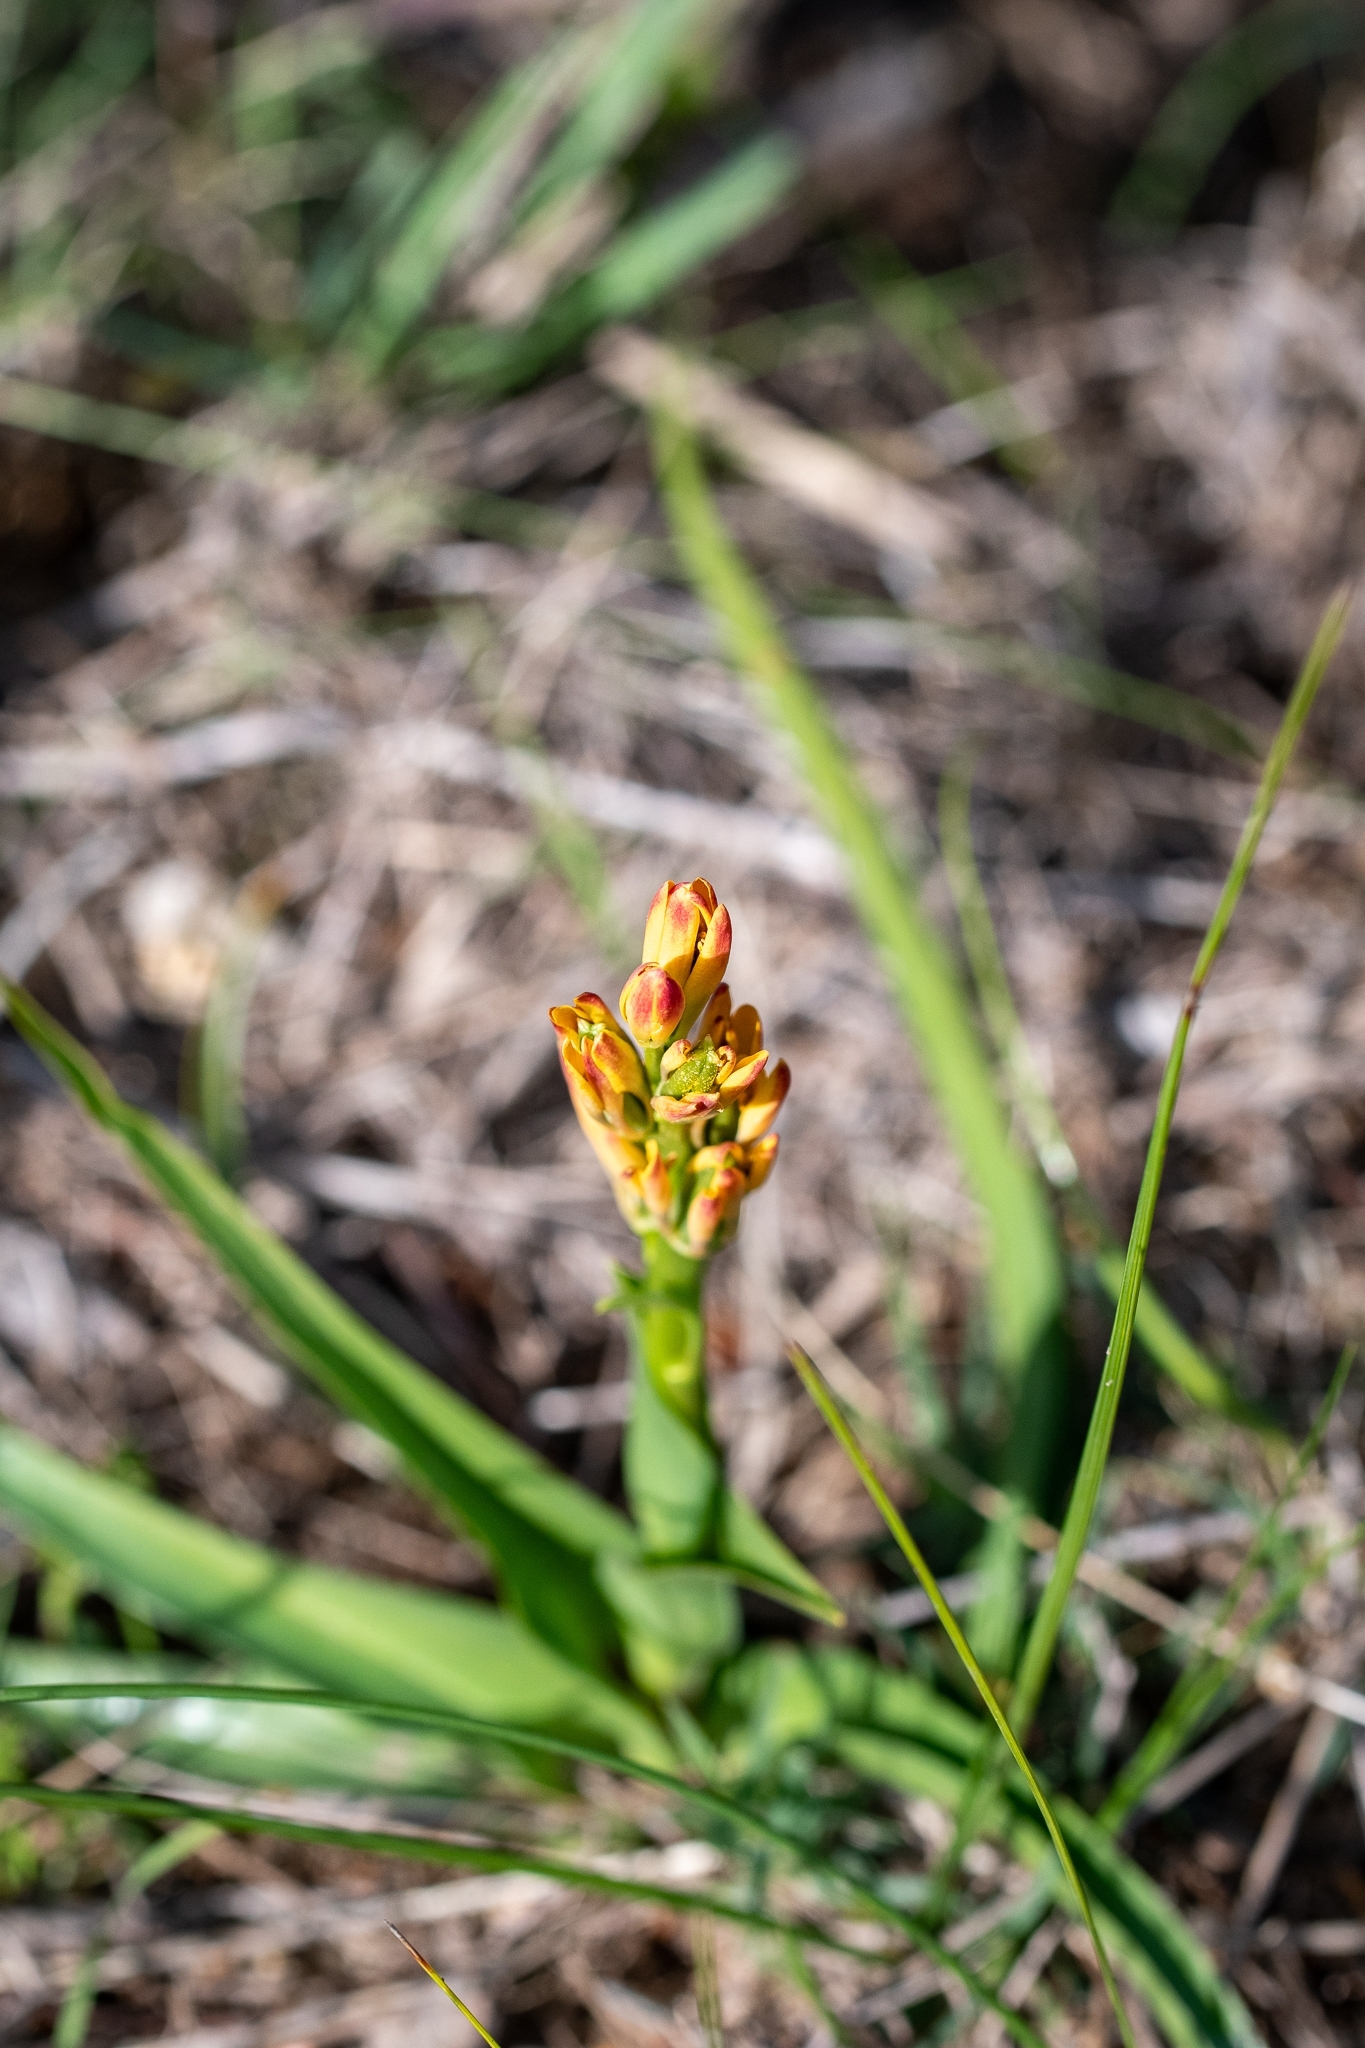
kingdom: Plantae
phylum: Tracheophyta
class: Liliopsida
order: Liliales
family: Colchicaceae
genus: Baeometra
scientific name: Baeometra uniflora
